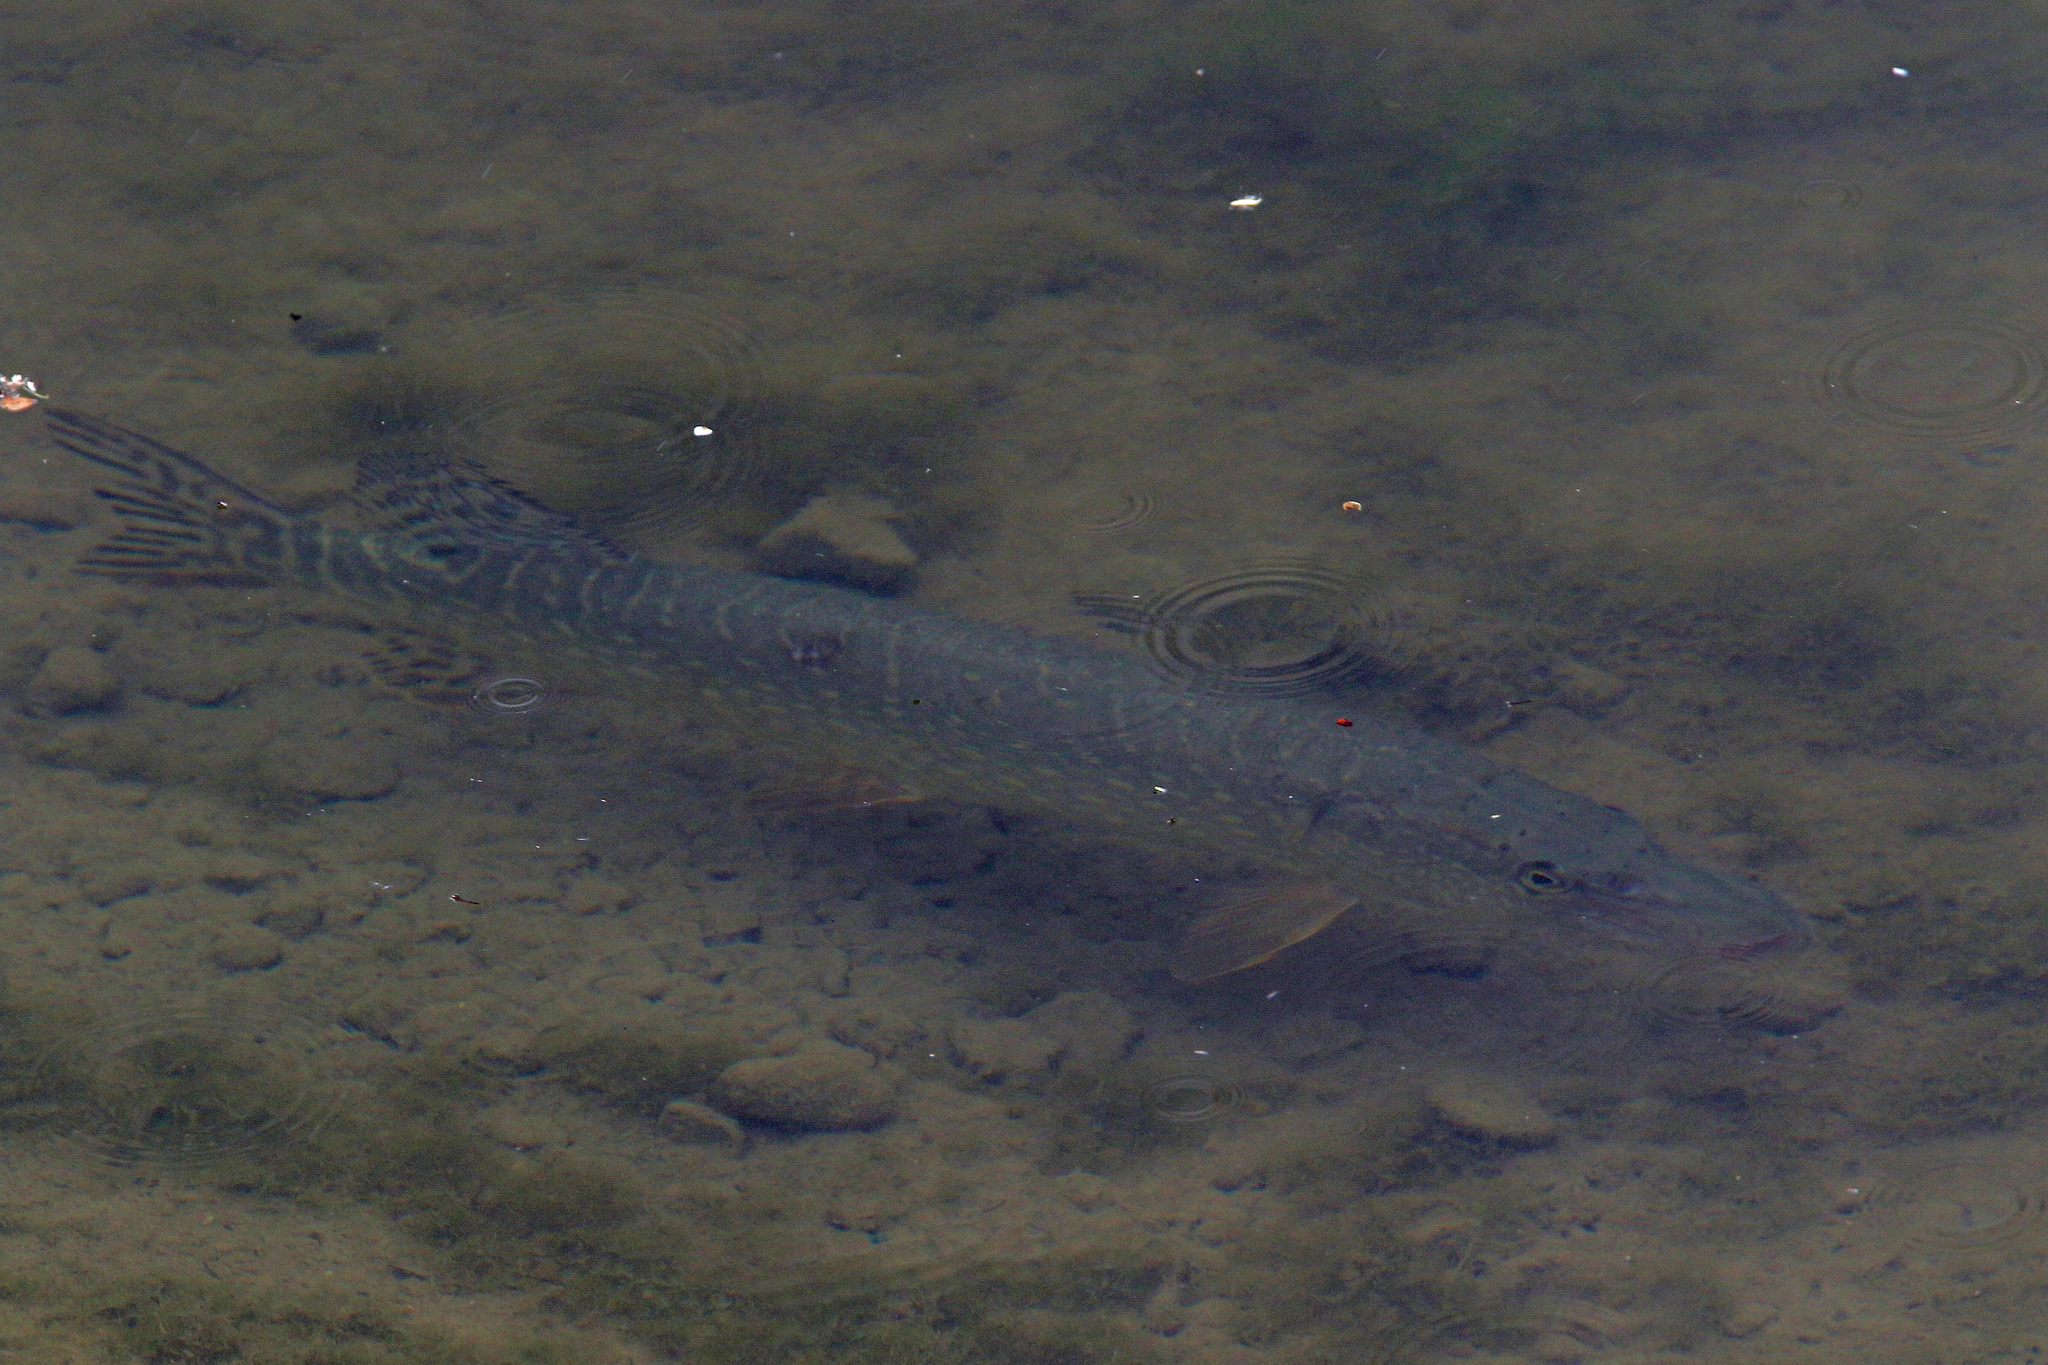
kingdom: Animalia
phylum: Chordata
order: Esociformes
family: Esocidae
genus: Esox
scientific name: Esox lucius
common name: Northern pike
